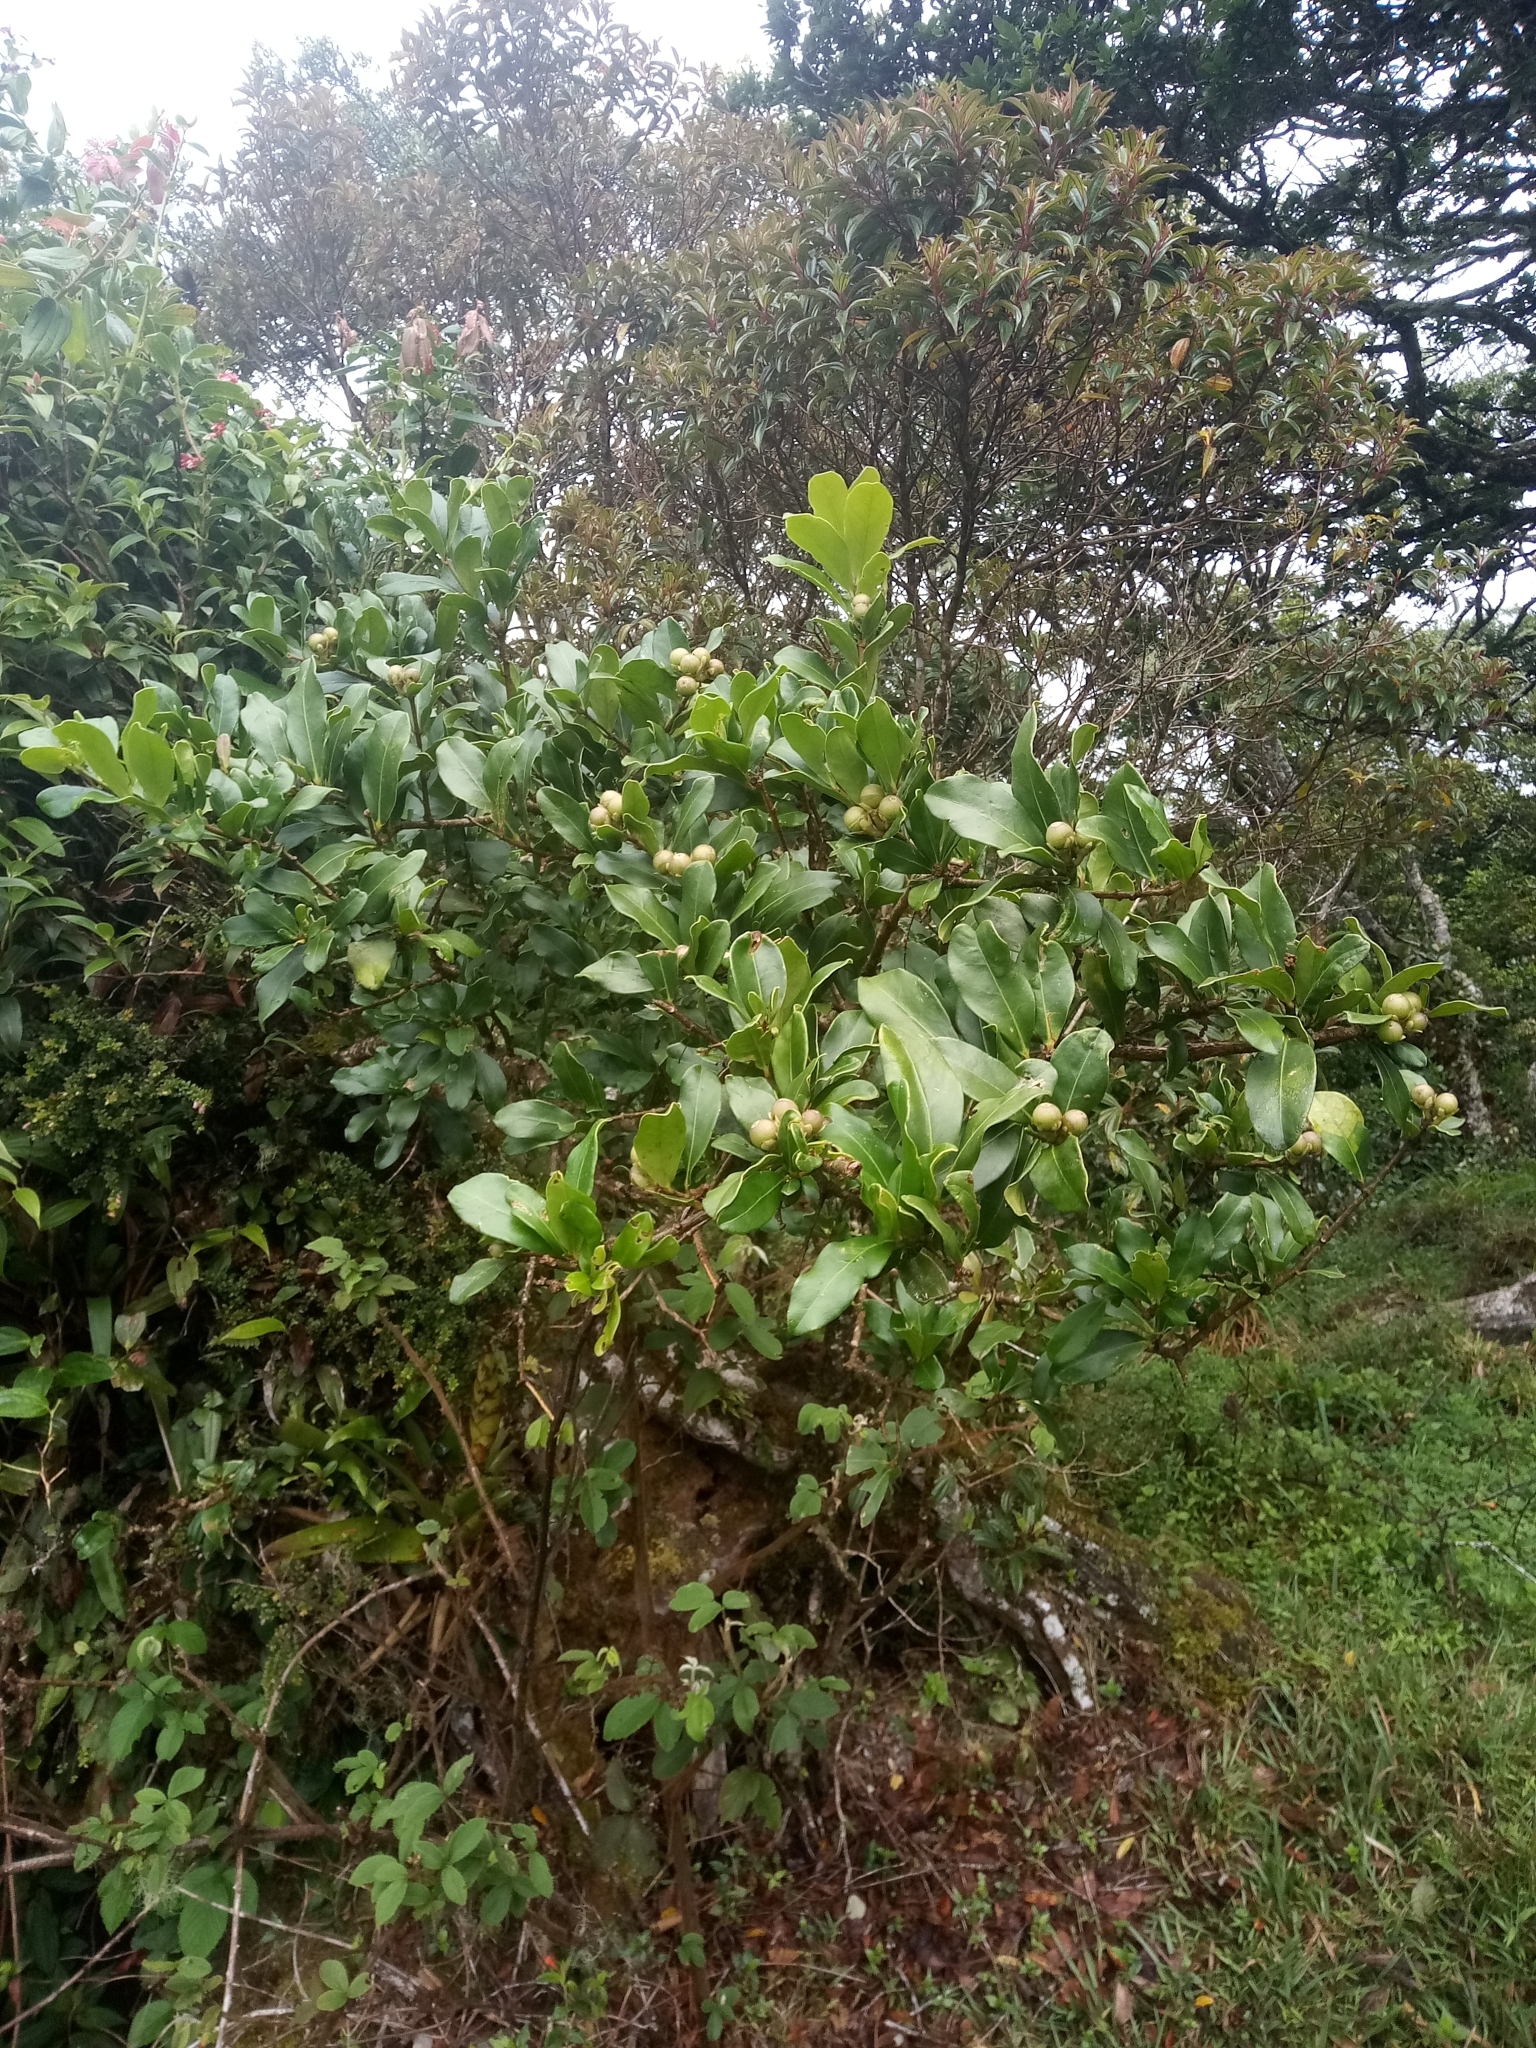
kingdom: Plantae
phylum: Tracheophyta
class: Magnoliopsida
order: Proteales
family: Proteaceae
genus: Panopsis
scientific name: Panopsis costaricensis
